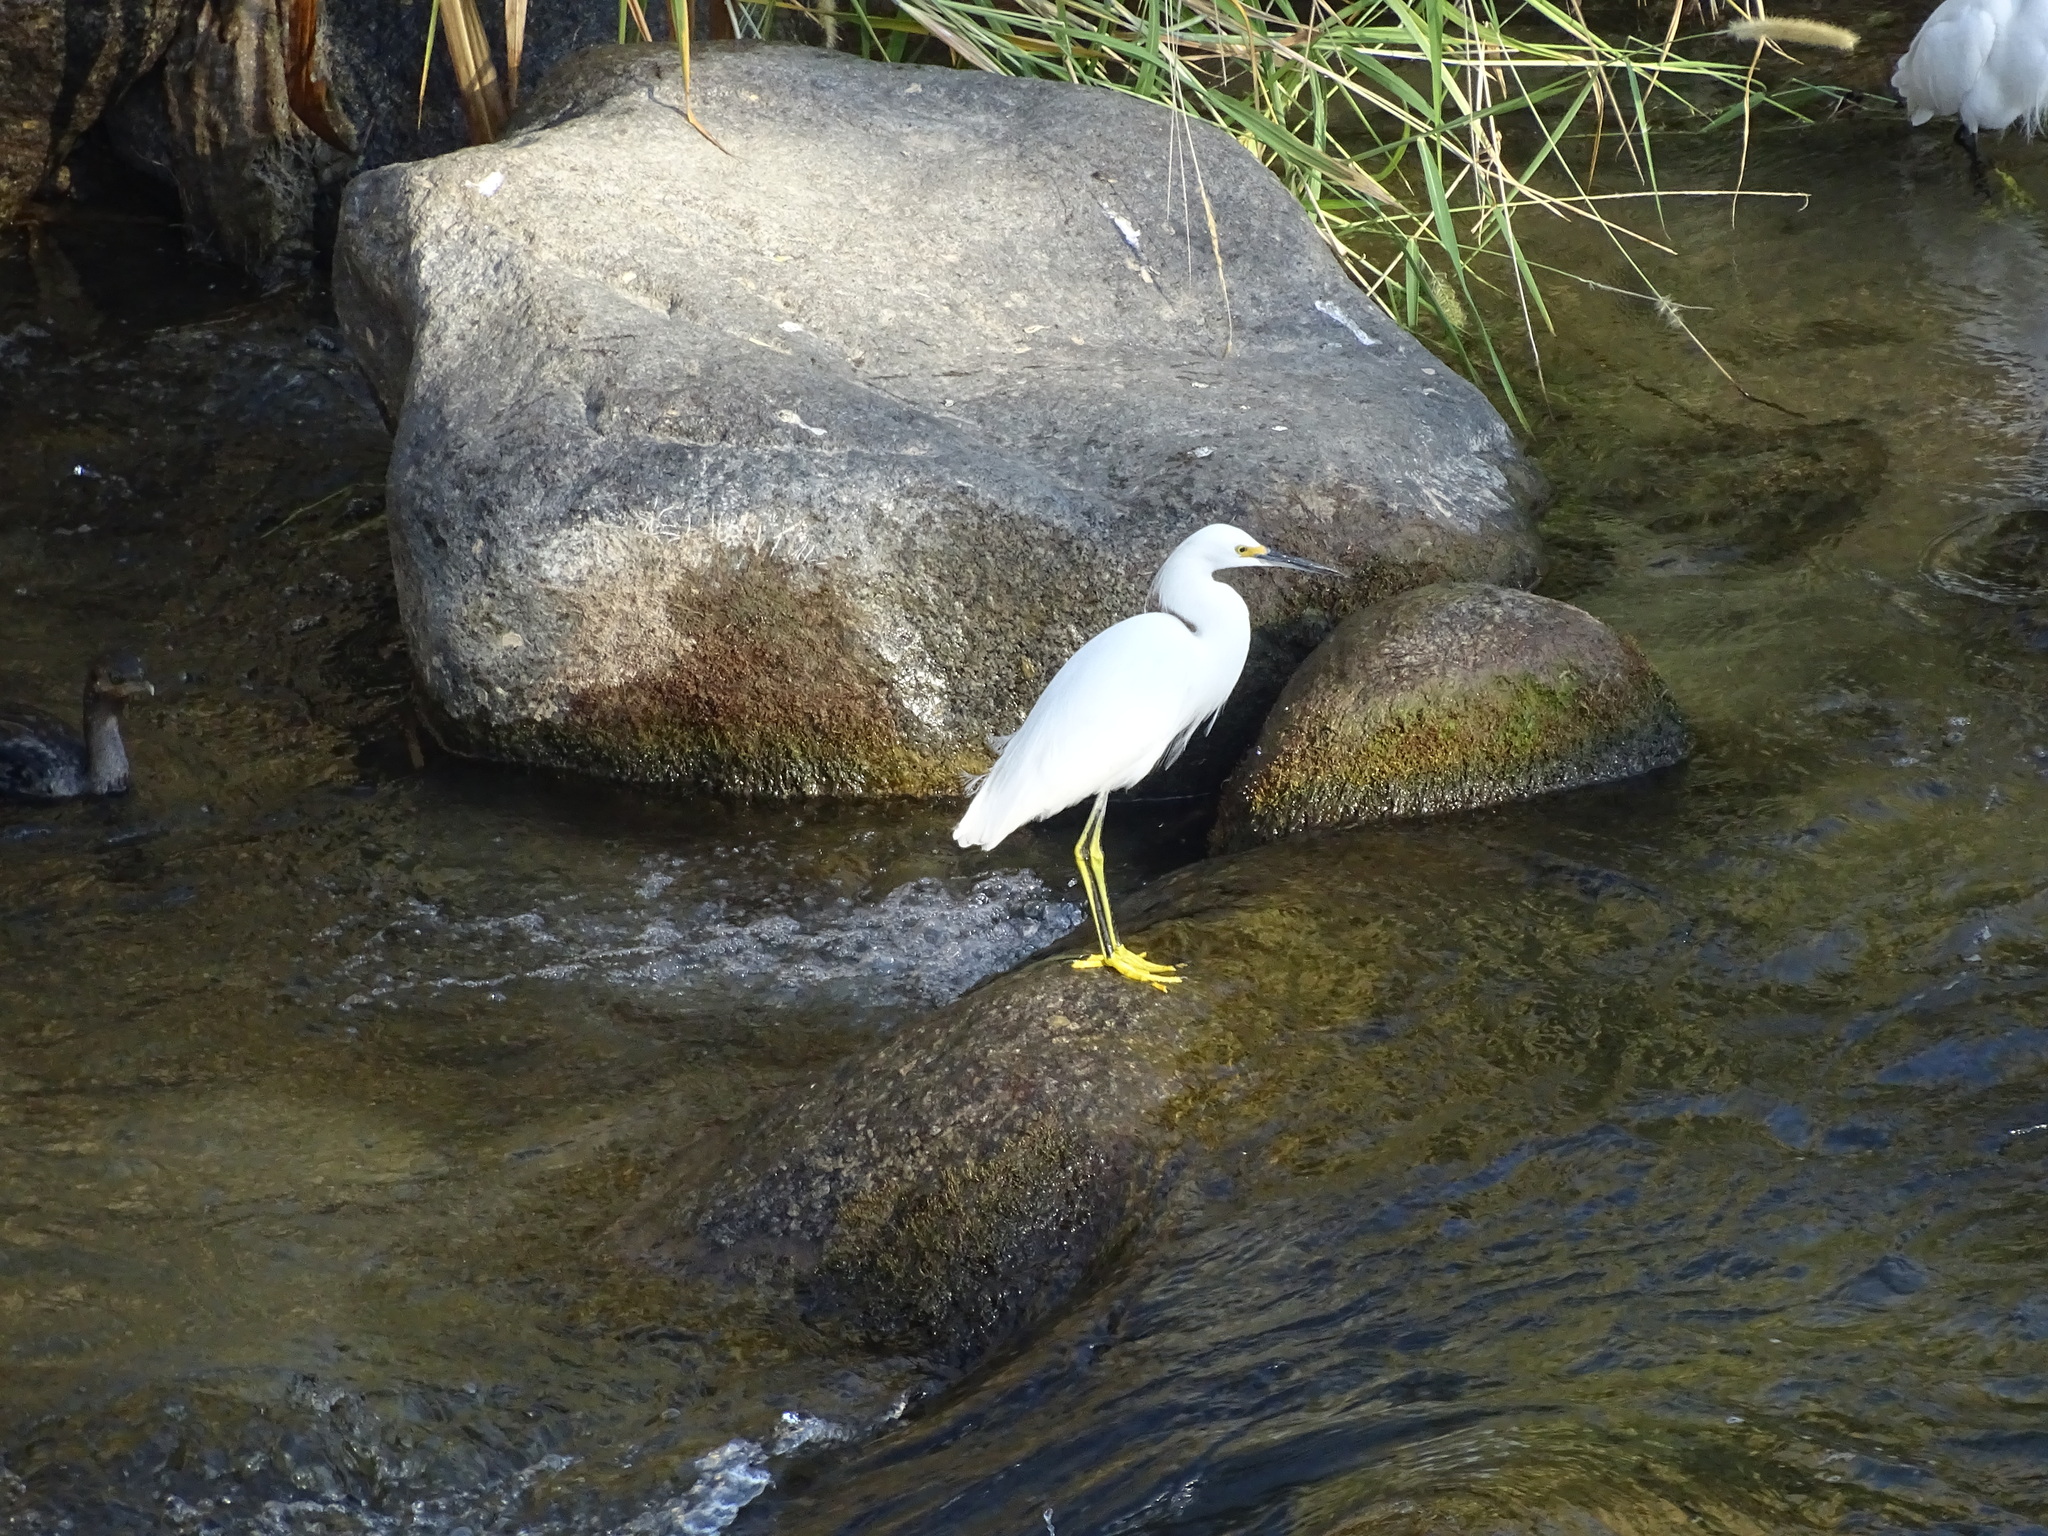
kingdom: Animalia
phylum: Chordata
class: Aves
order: Pelecaniformes
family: Ardeidae
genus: Egretta
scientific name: Egretta thula
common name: Snowy egret
